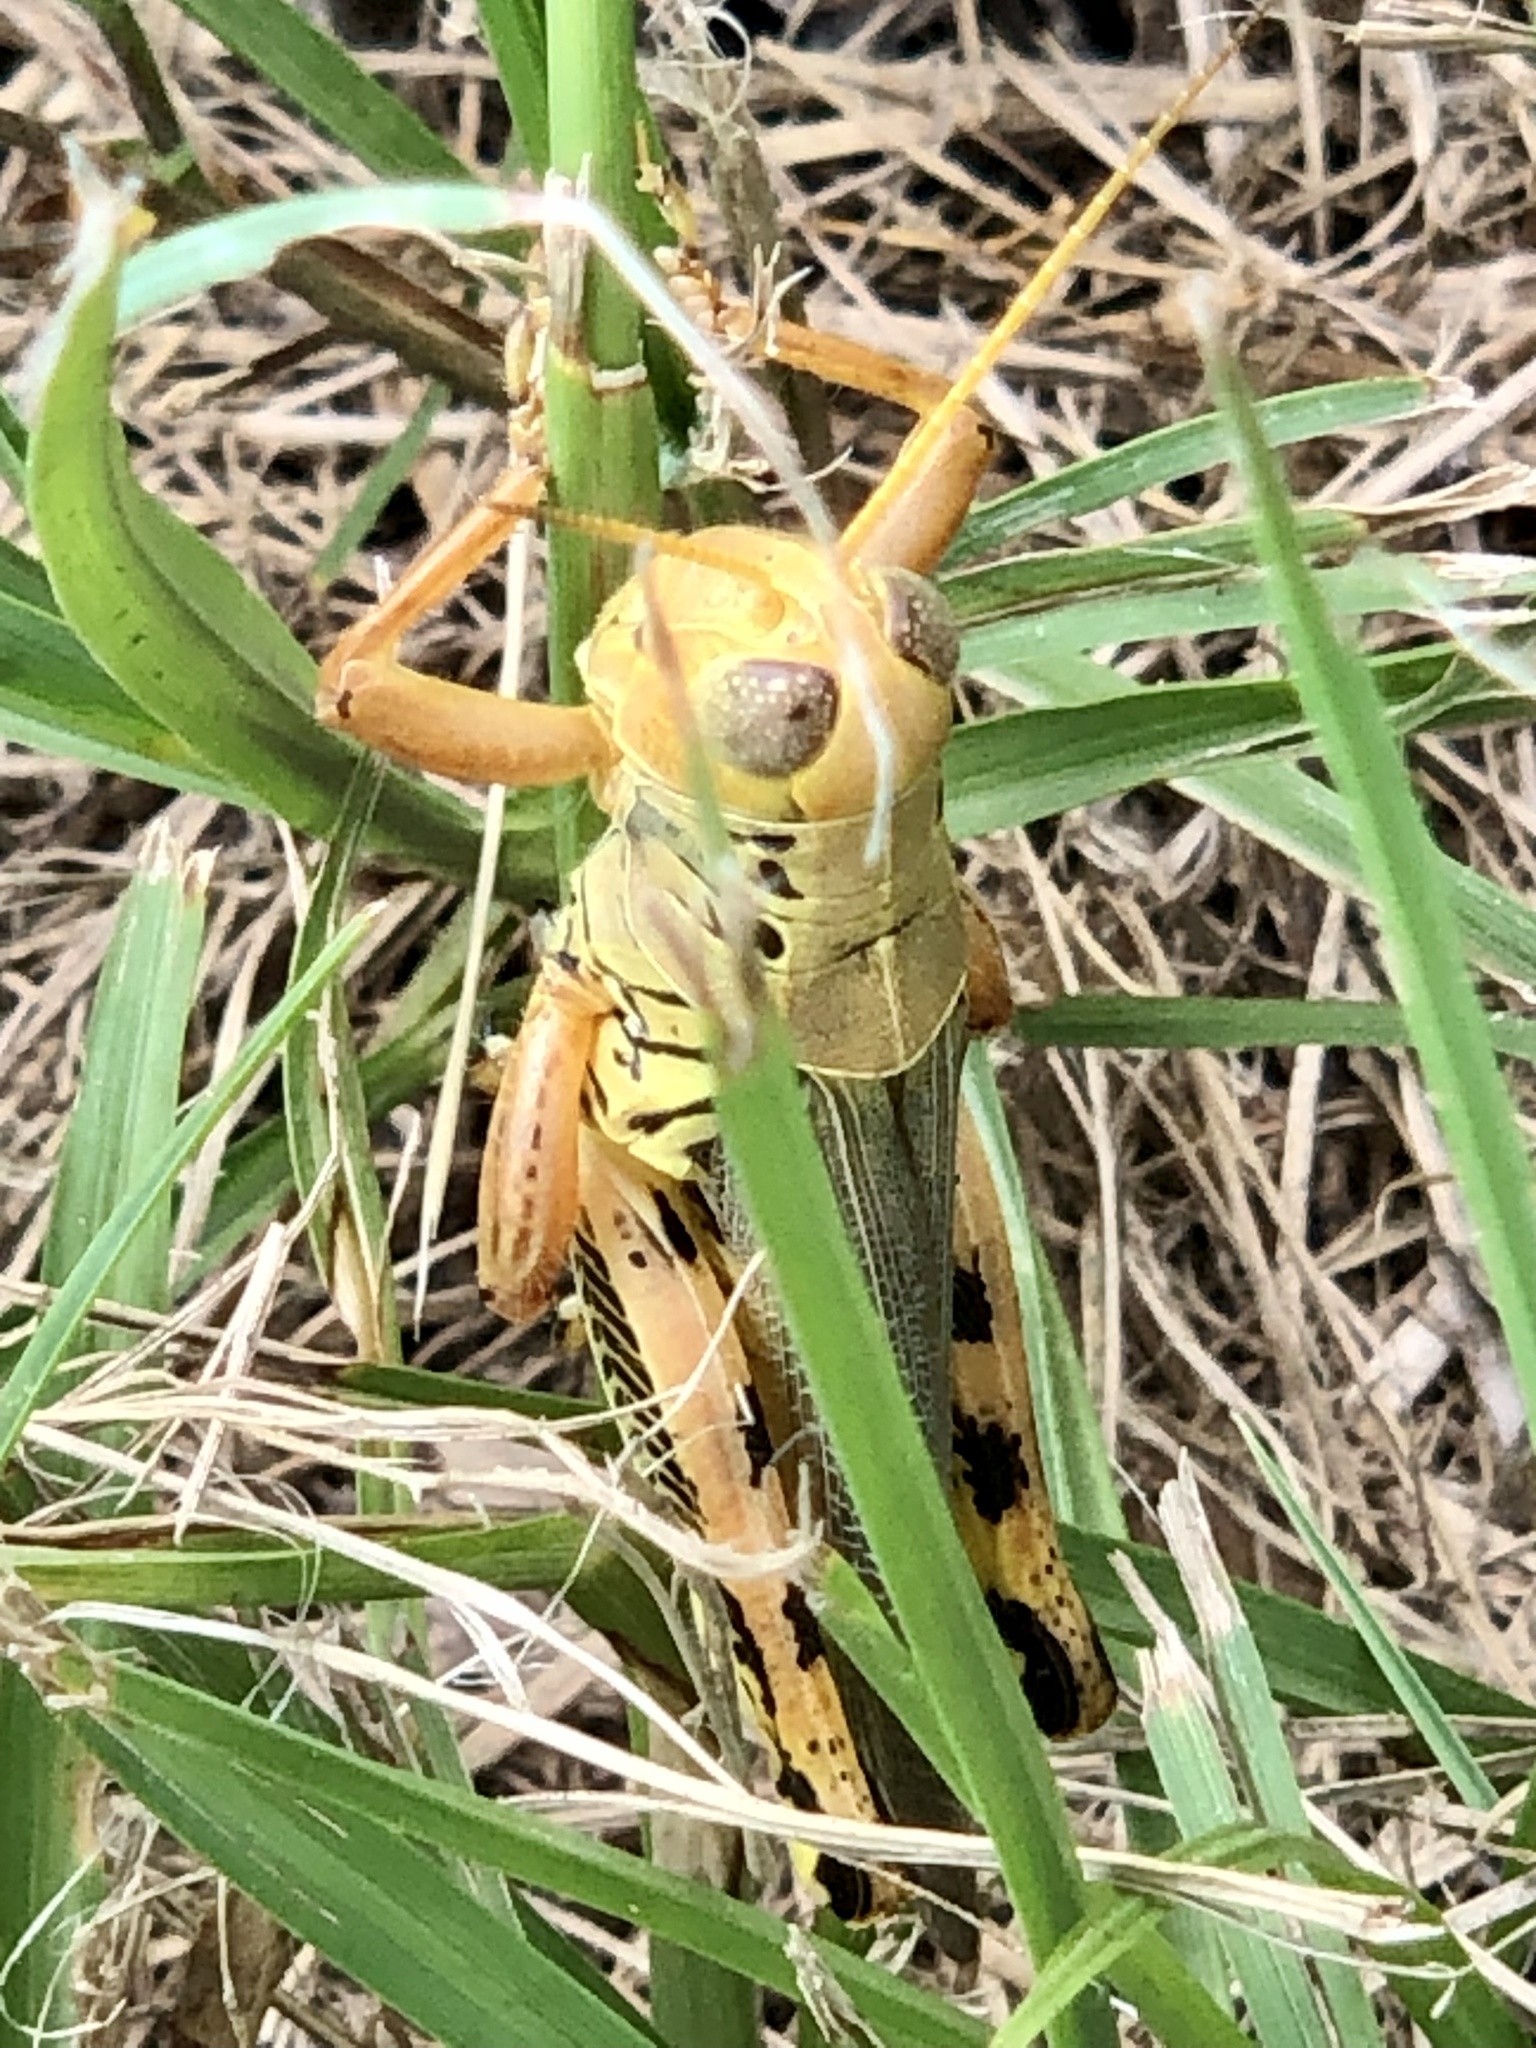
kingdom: Animalia
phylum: Arthropoda
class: Insecta
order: Orthoptera
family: Acrididae
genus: Melanoplus
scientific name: Melanoplus differentialis
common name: Differential grasshopper
